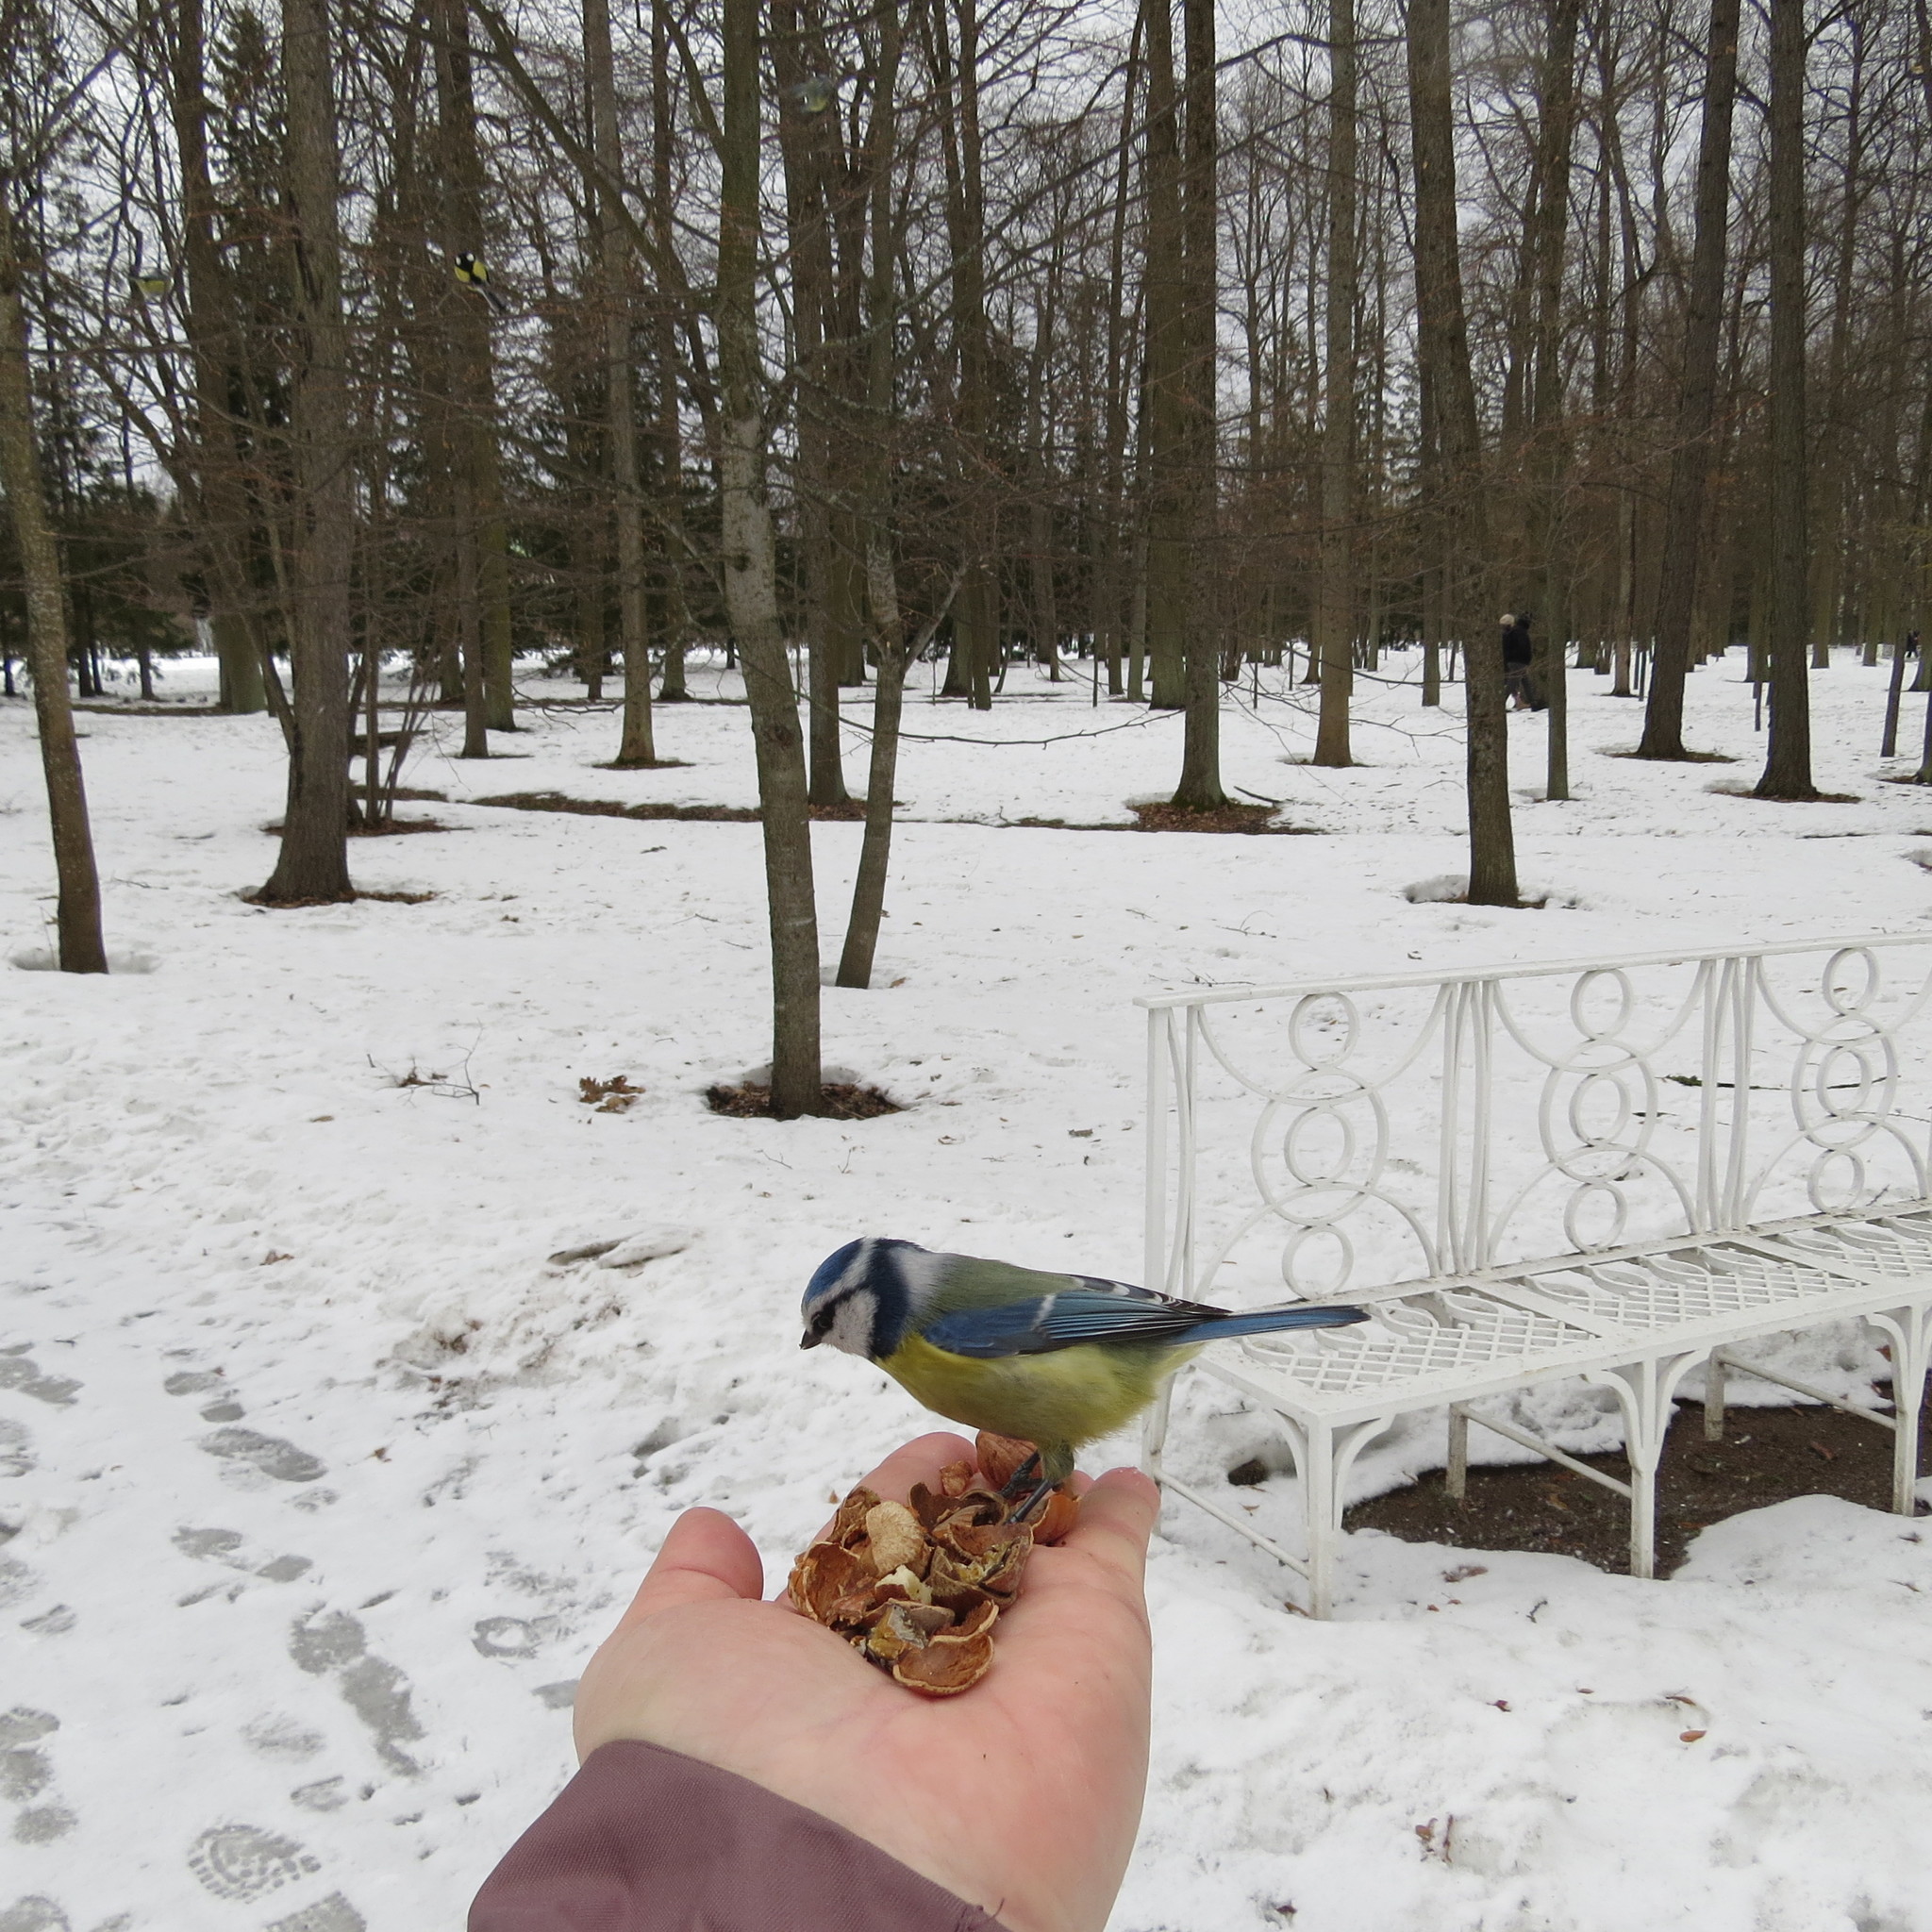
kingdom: Animalia
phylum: Chordata
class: Aves
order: Passeriformes
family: Paridae
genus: Cyanistes
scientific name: Cyanistes caeruleus
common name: Eurasian blue tit
